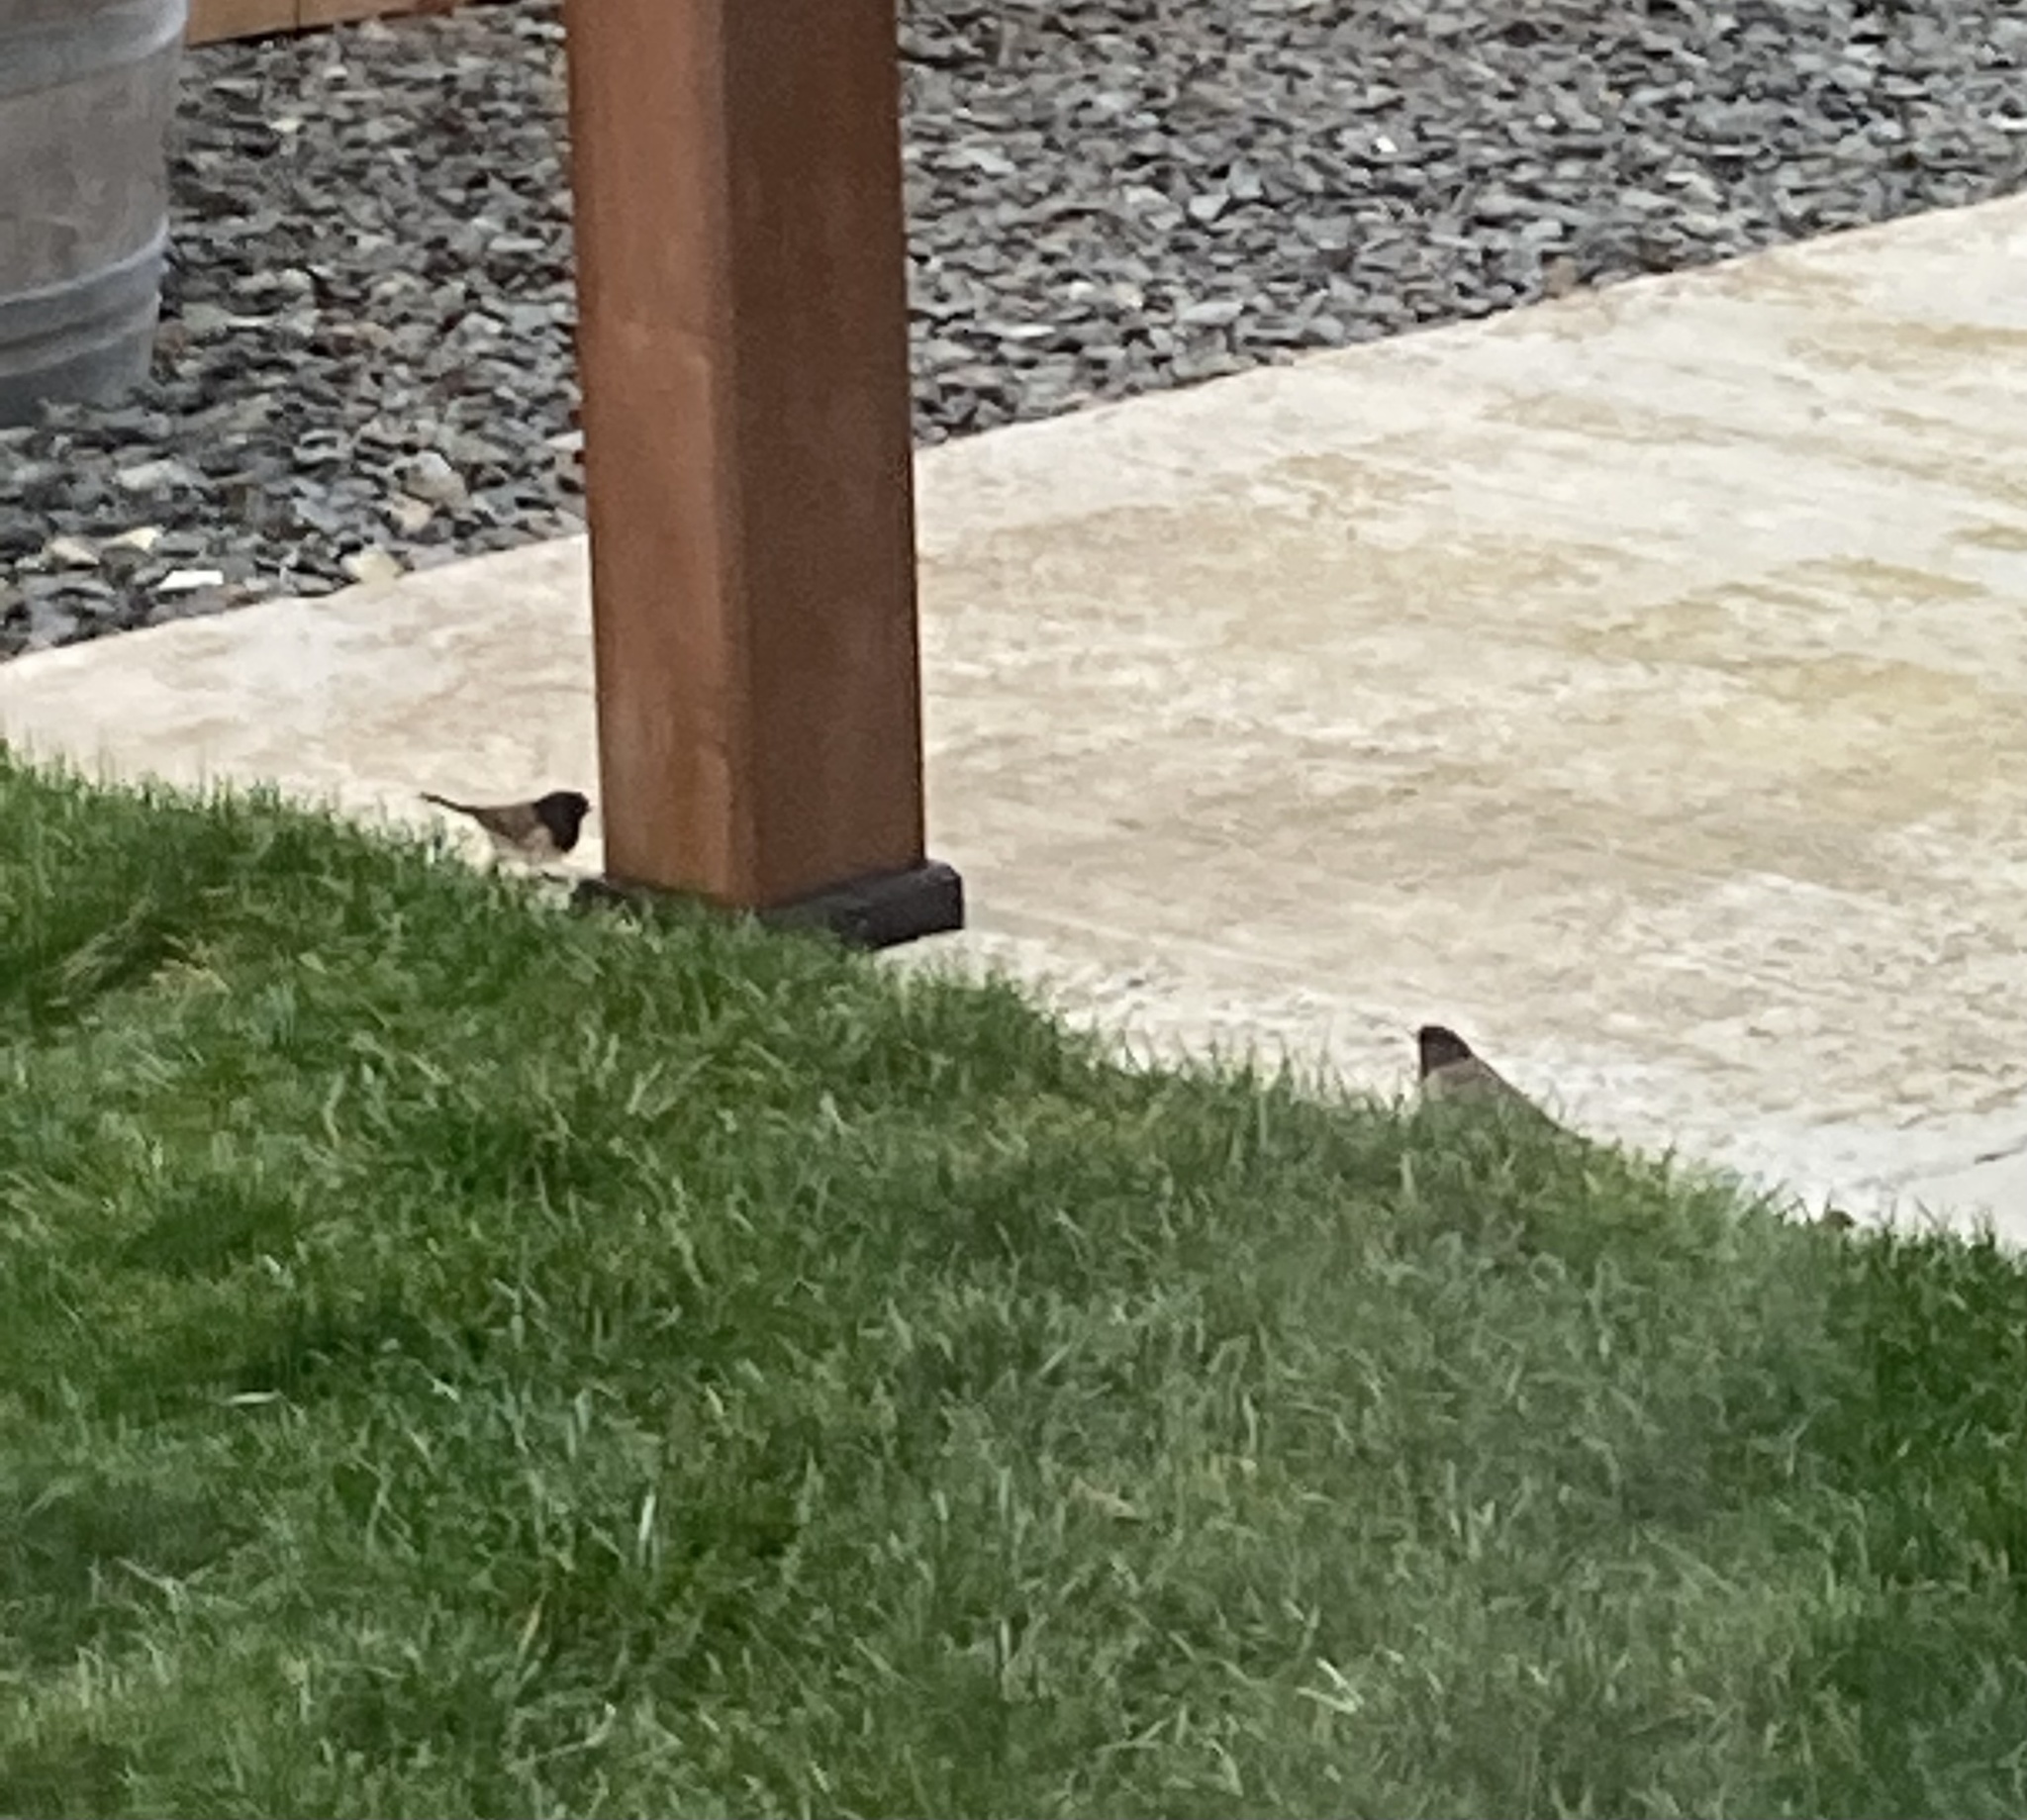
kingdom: Animalia
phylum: Chordata
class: Aves
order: Passeriformes
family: Passerellidae
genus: Junco
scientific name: Junco hyemalis
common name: Dark-eyed junco
